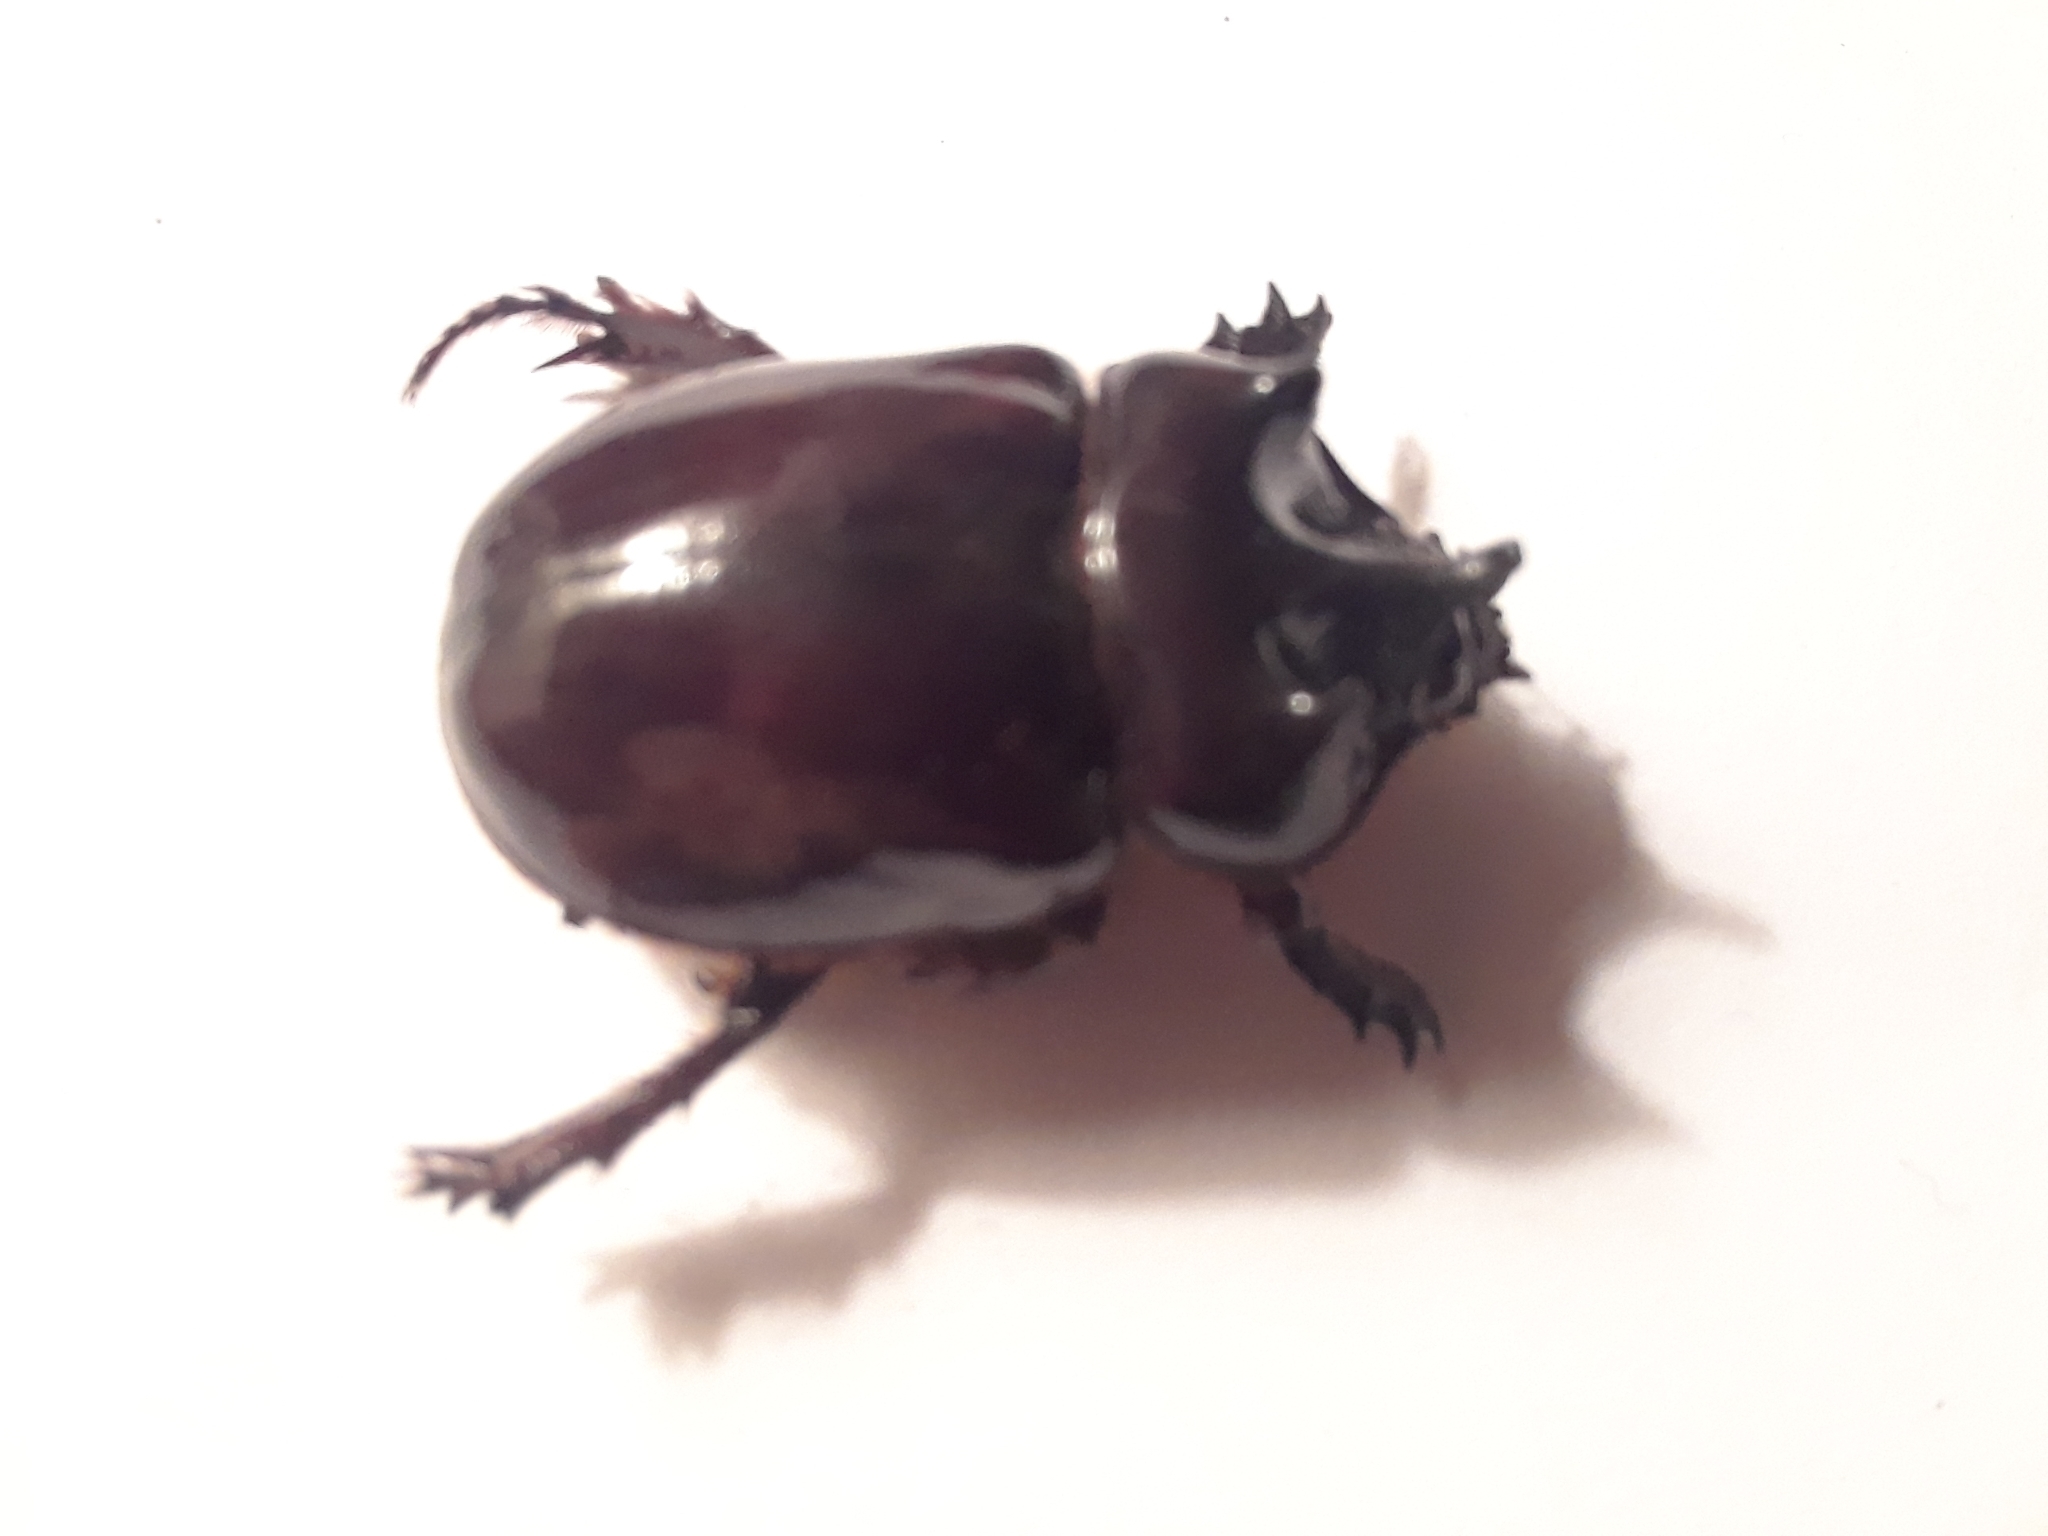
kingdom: Animalia
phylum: Arthropoda
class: Insecta
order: Coleoptera
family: Scarabaeidae
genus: Strategus
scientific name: Strategus antaeus
